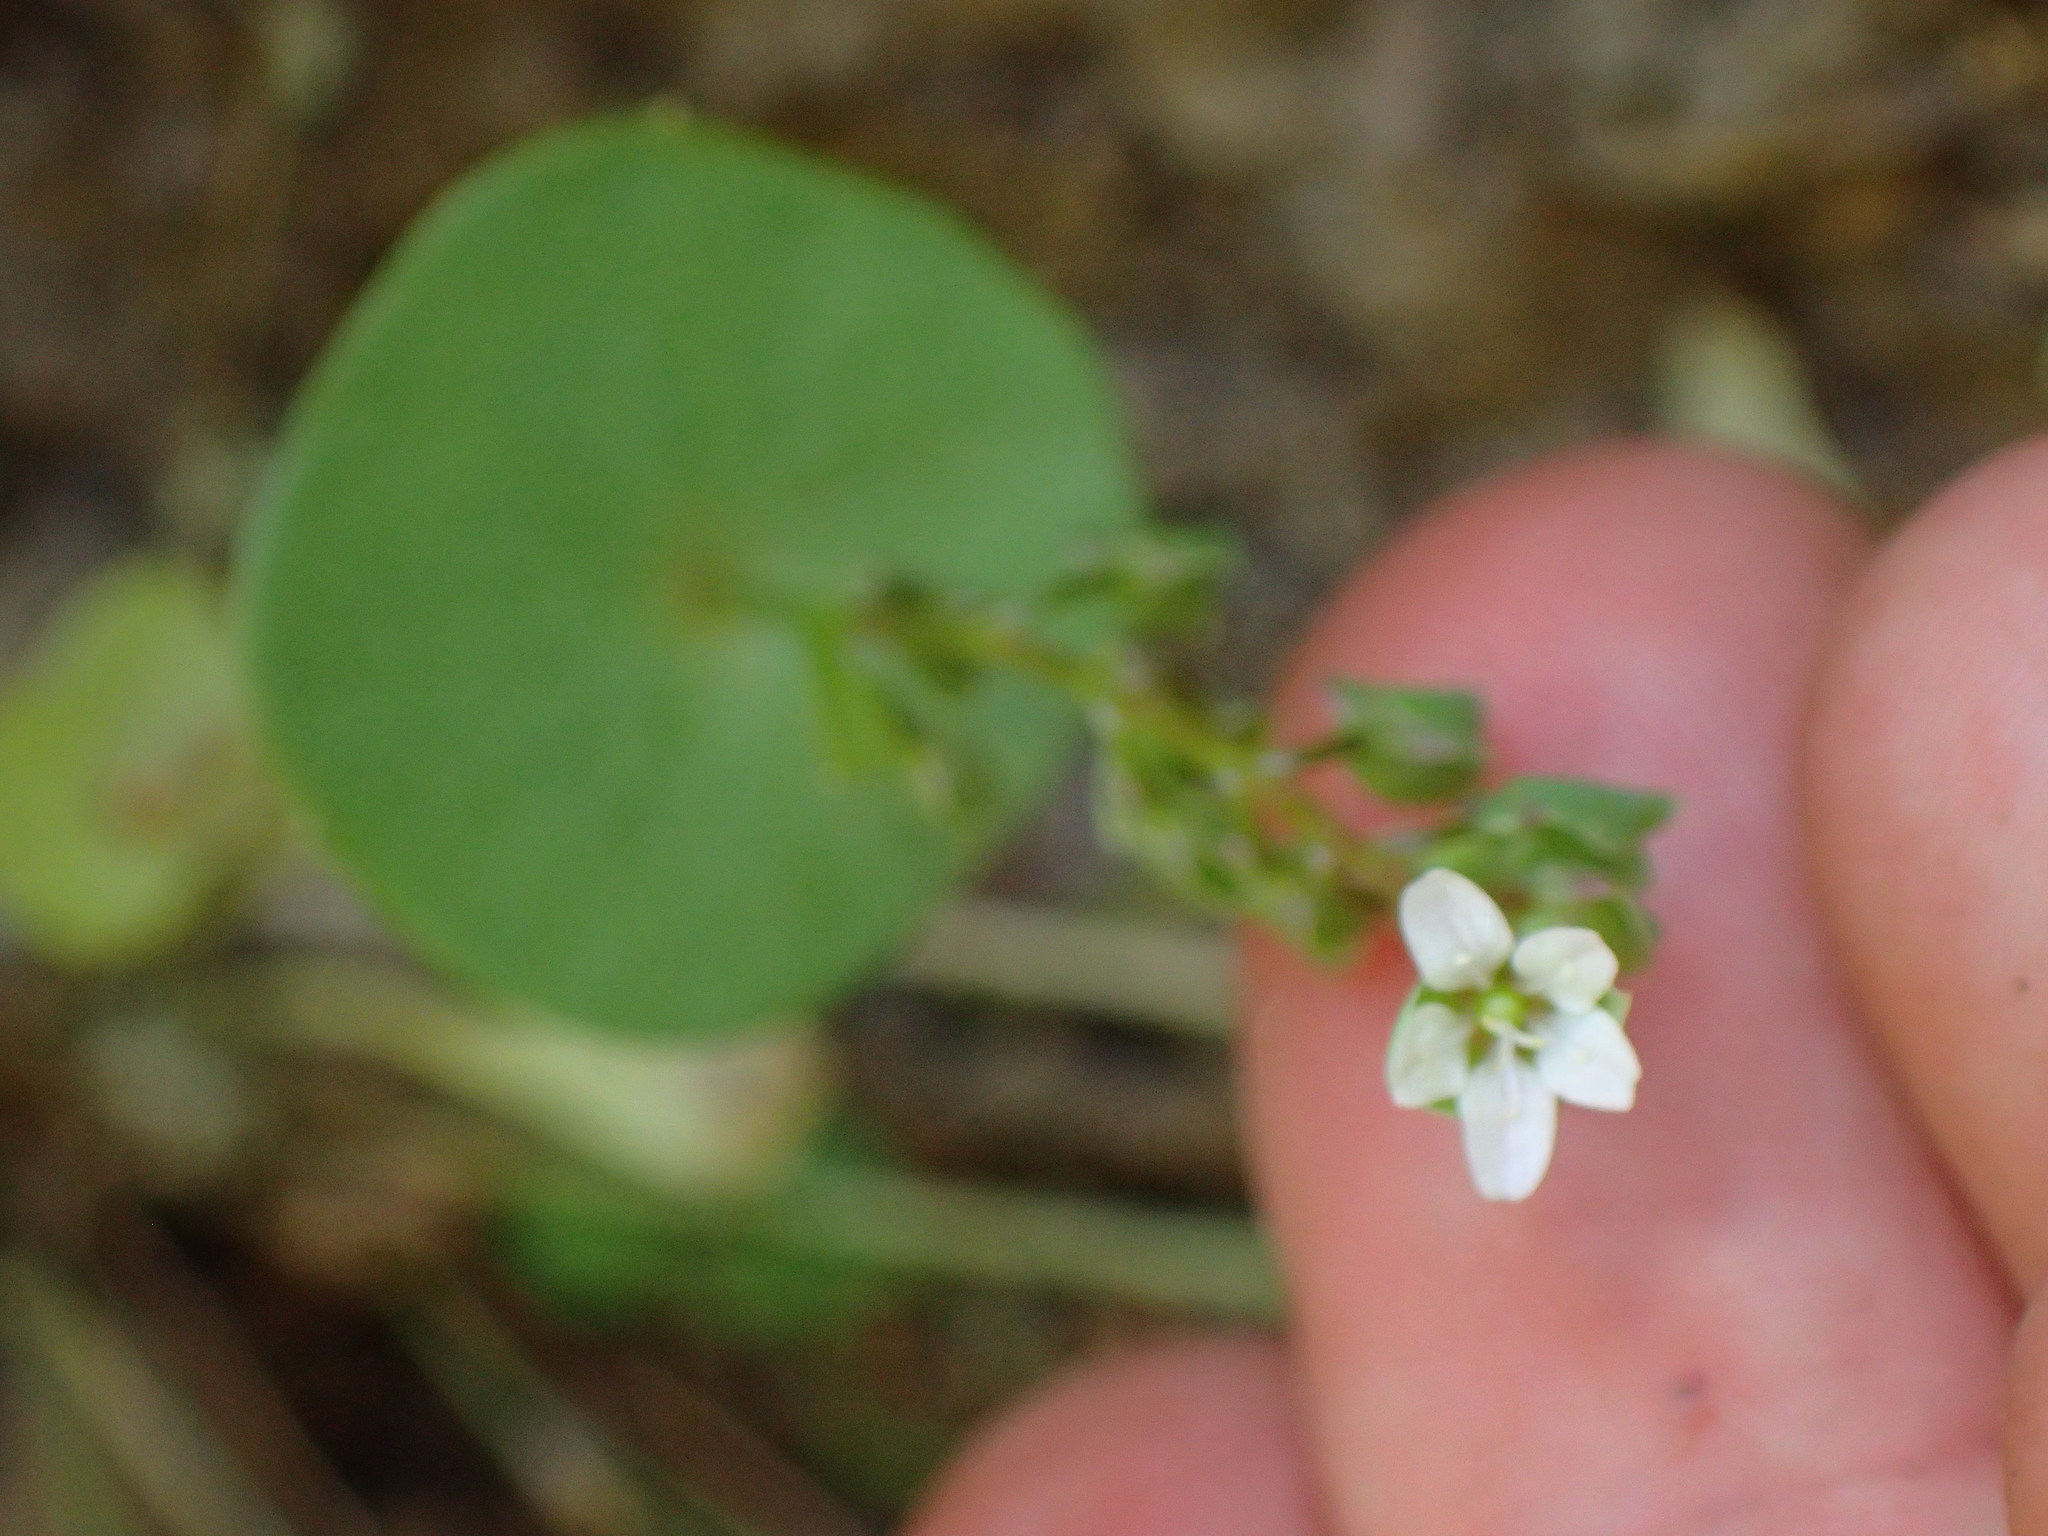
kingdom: Plantae
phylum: Tracheophyta
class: Magnoliopsida
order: Caryophyllales
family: Montiaceae
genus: Claytonia
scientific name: Claytonia perfoliata
